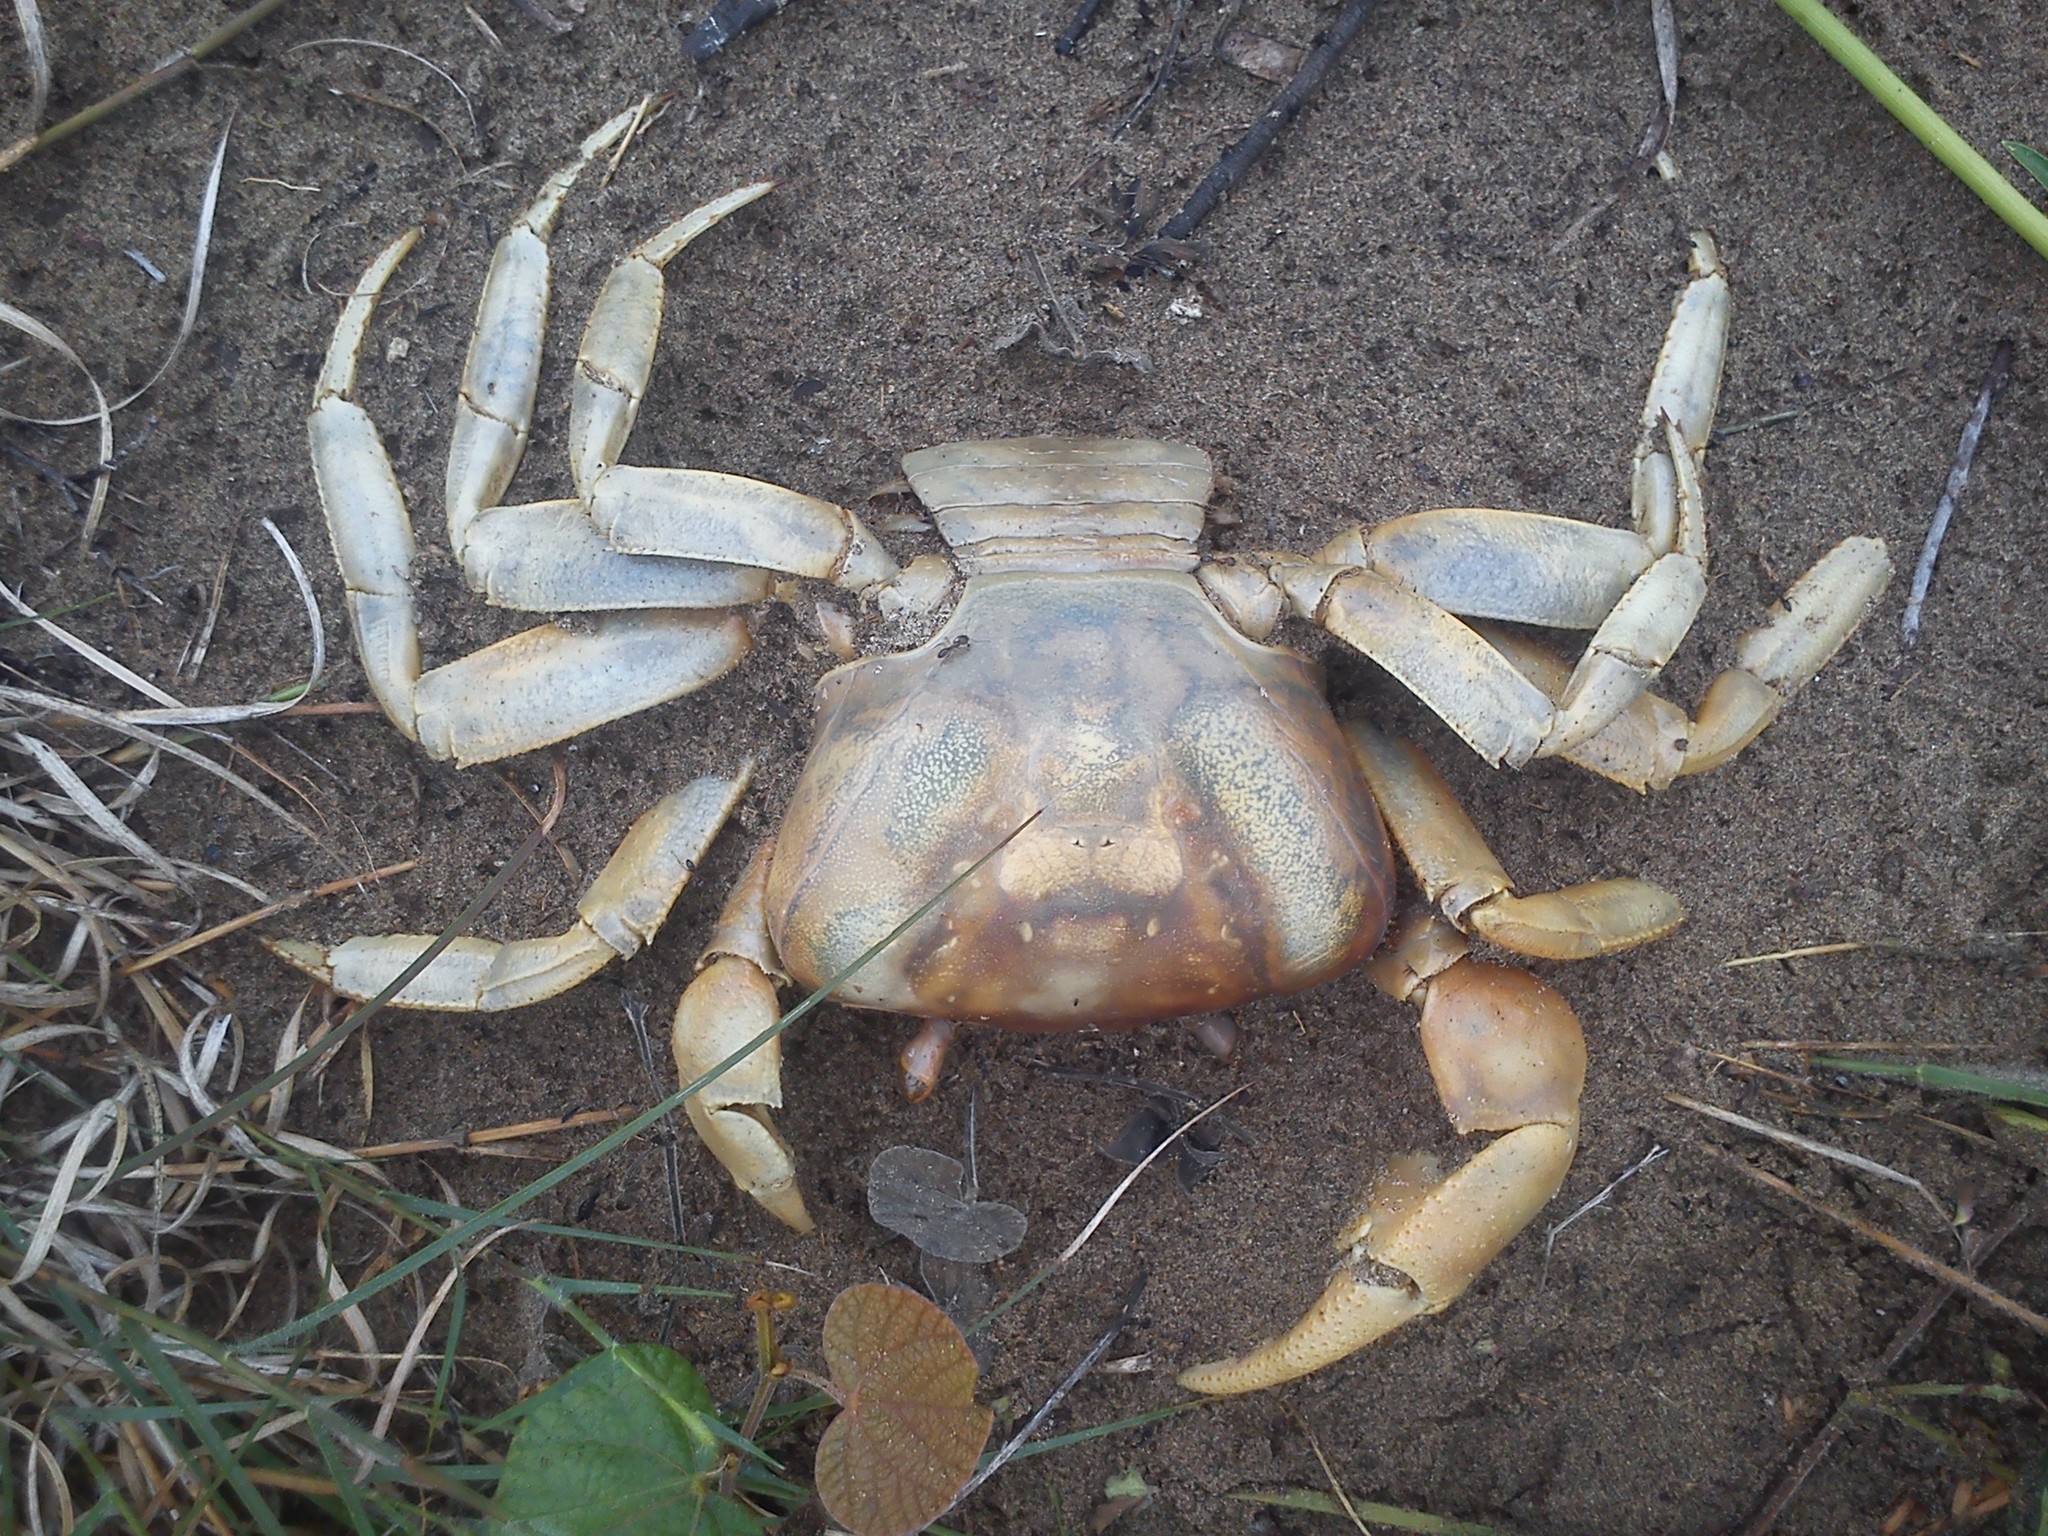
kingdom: Animalia
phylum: Arthropoda
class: Malacostraca
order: Decapoda
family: Gecarcinidae
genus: Cardisoma
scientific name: Cardisoma guanhumi
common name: Great land crab
